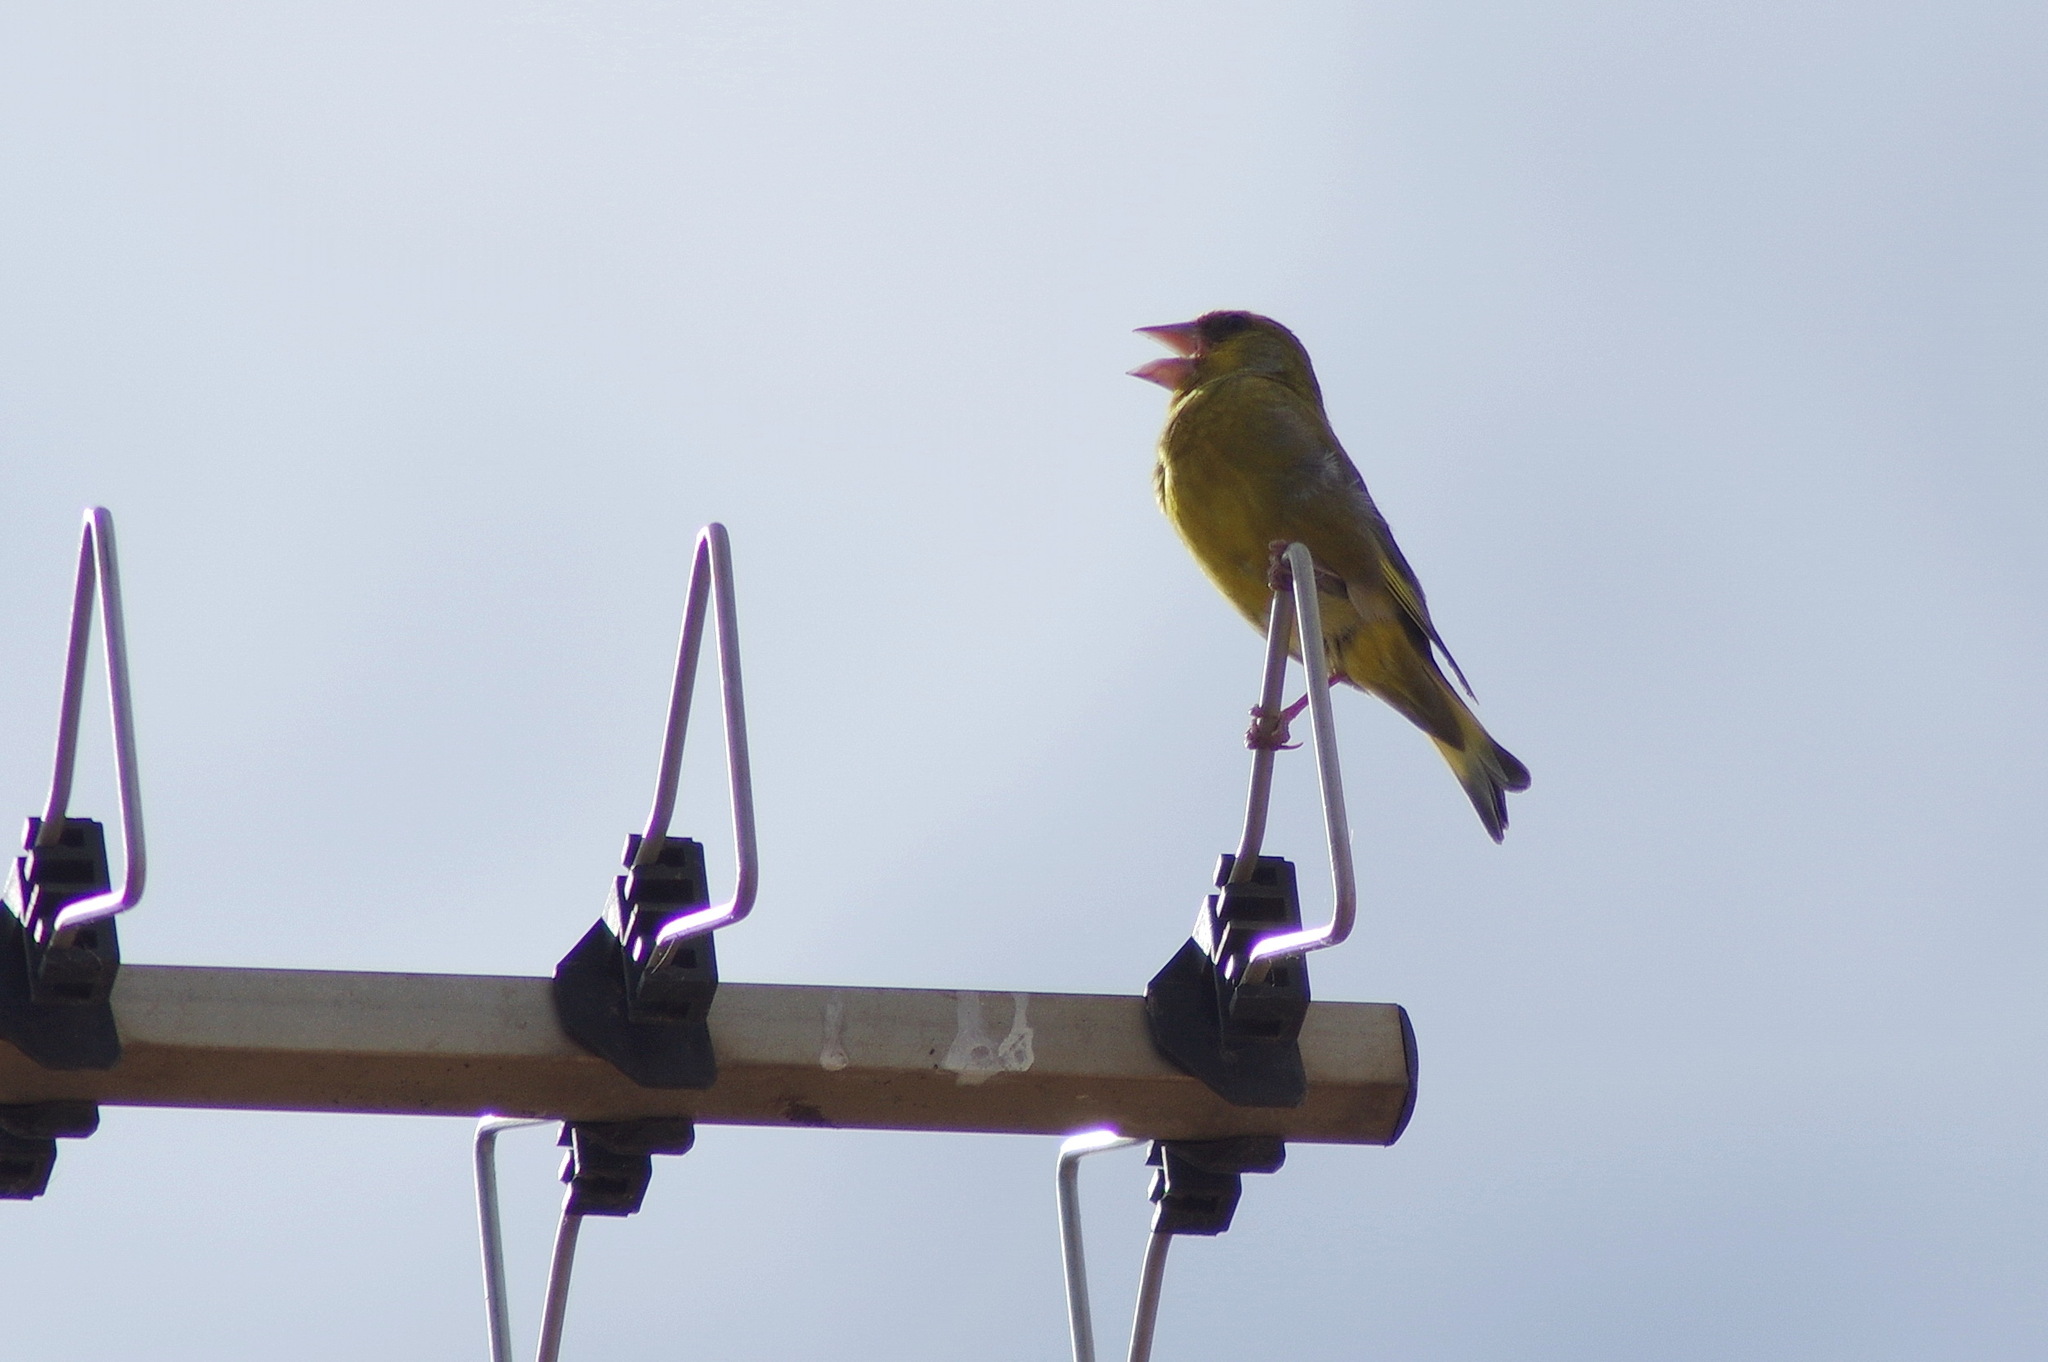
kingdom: Plantae
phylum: Tracheophyta
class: Liliopsida
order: Poales
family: Poaceae
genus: Chloris
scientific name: Chloris chloris
